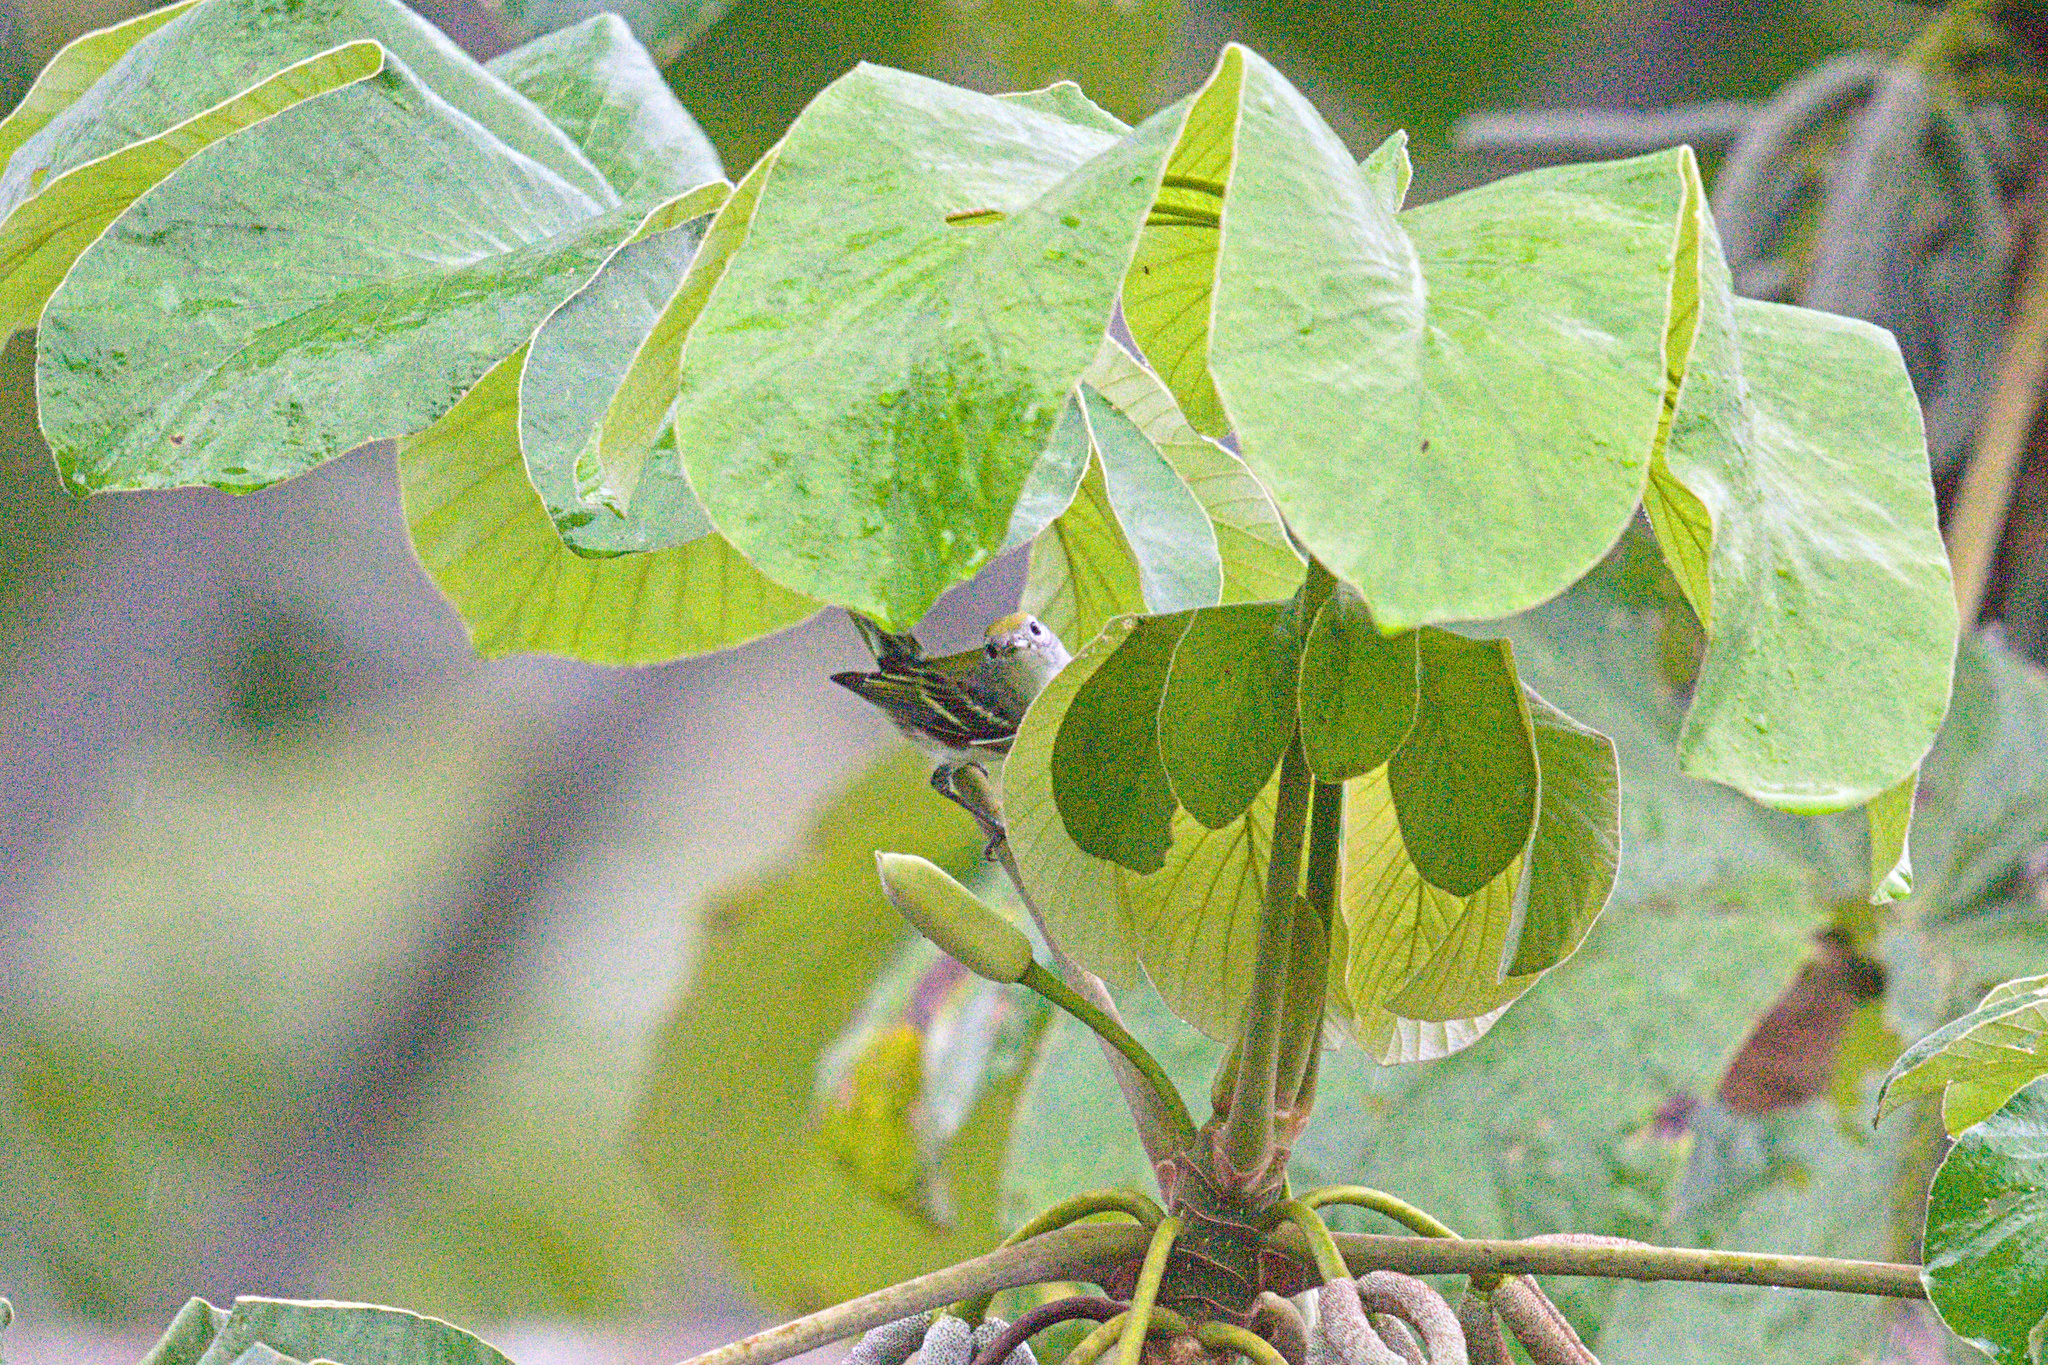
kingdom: Animalia
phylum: Chordata
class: Aves
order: Passeriformes
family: Parulidae
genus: Setophaga
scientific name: Setophaga pensylvanica
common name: Chestnut-sided warbler
